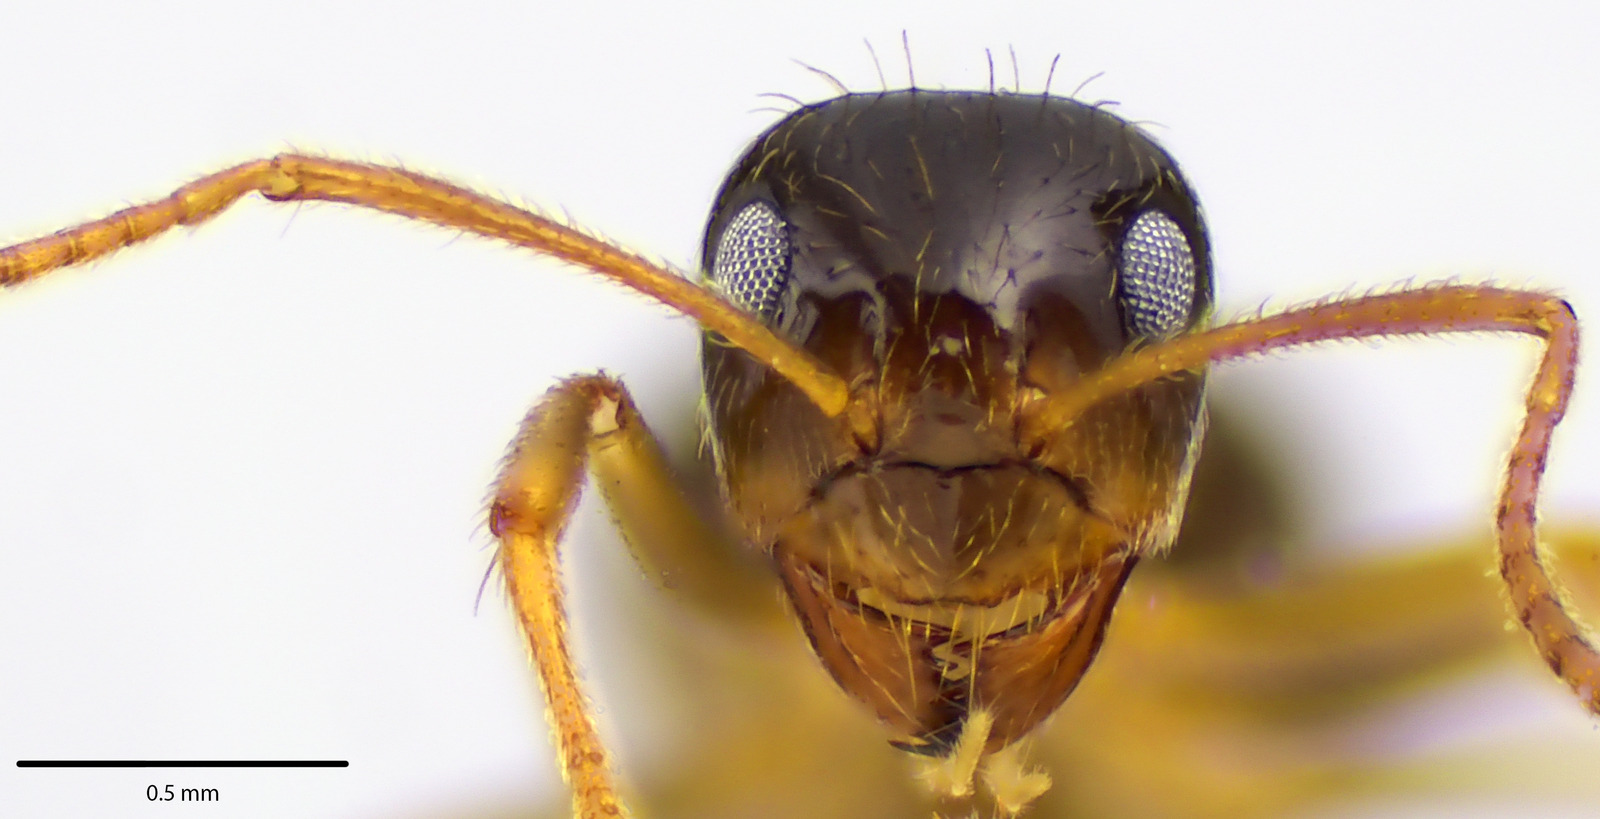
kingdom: Animalia
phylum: Arthropoda
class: Insecta
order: Hymenoptera
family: Formicidae
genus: Prenolepis
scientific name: Prenolepis imparis
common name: Small honey ant
